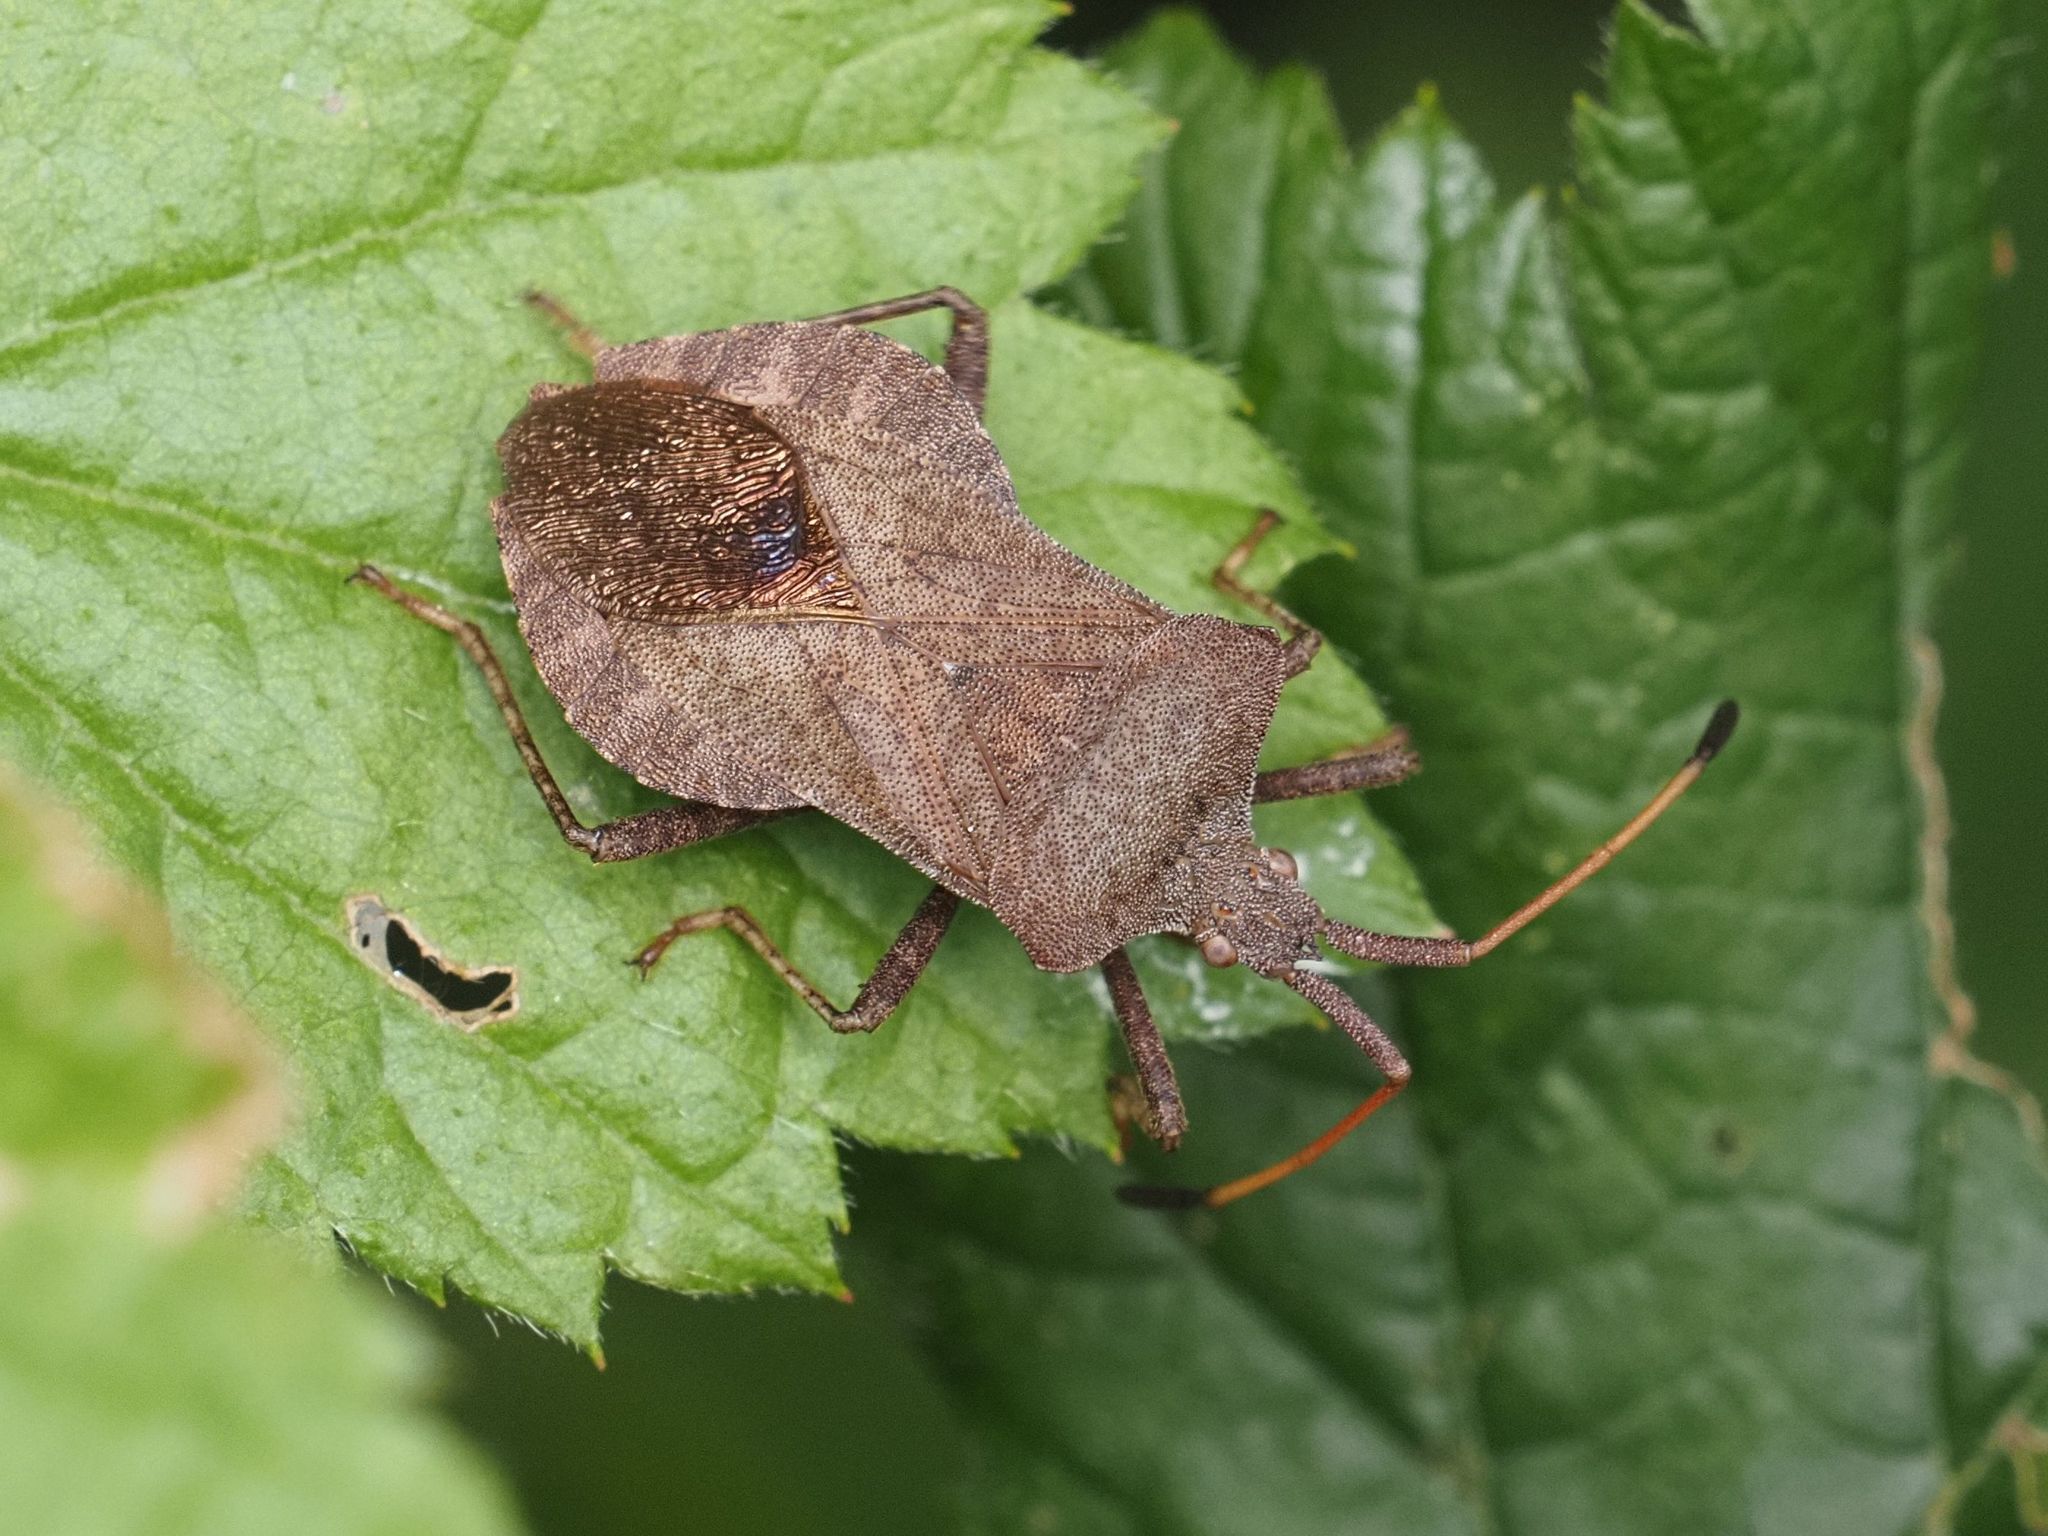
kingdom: Animalia
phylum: Arthropoda
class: Insecta
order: Hemiptera
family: Coreidae
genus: Coreus
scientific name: Coreus marginatus
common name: Dock bug
